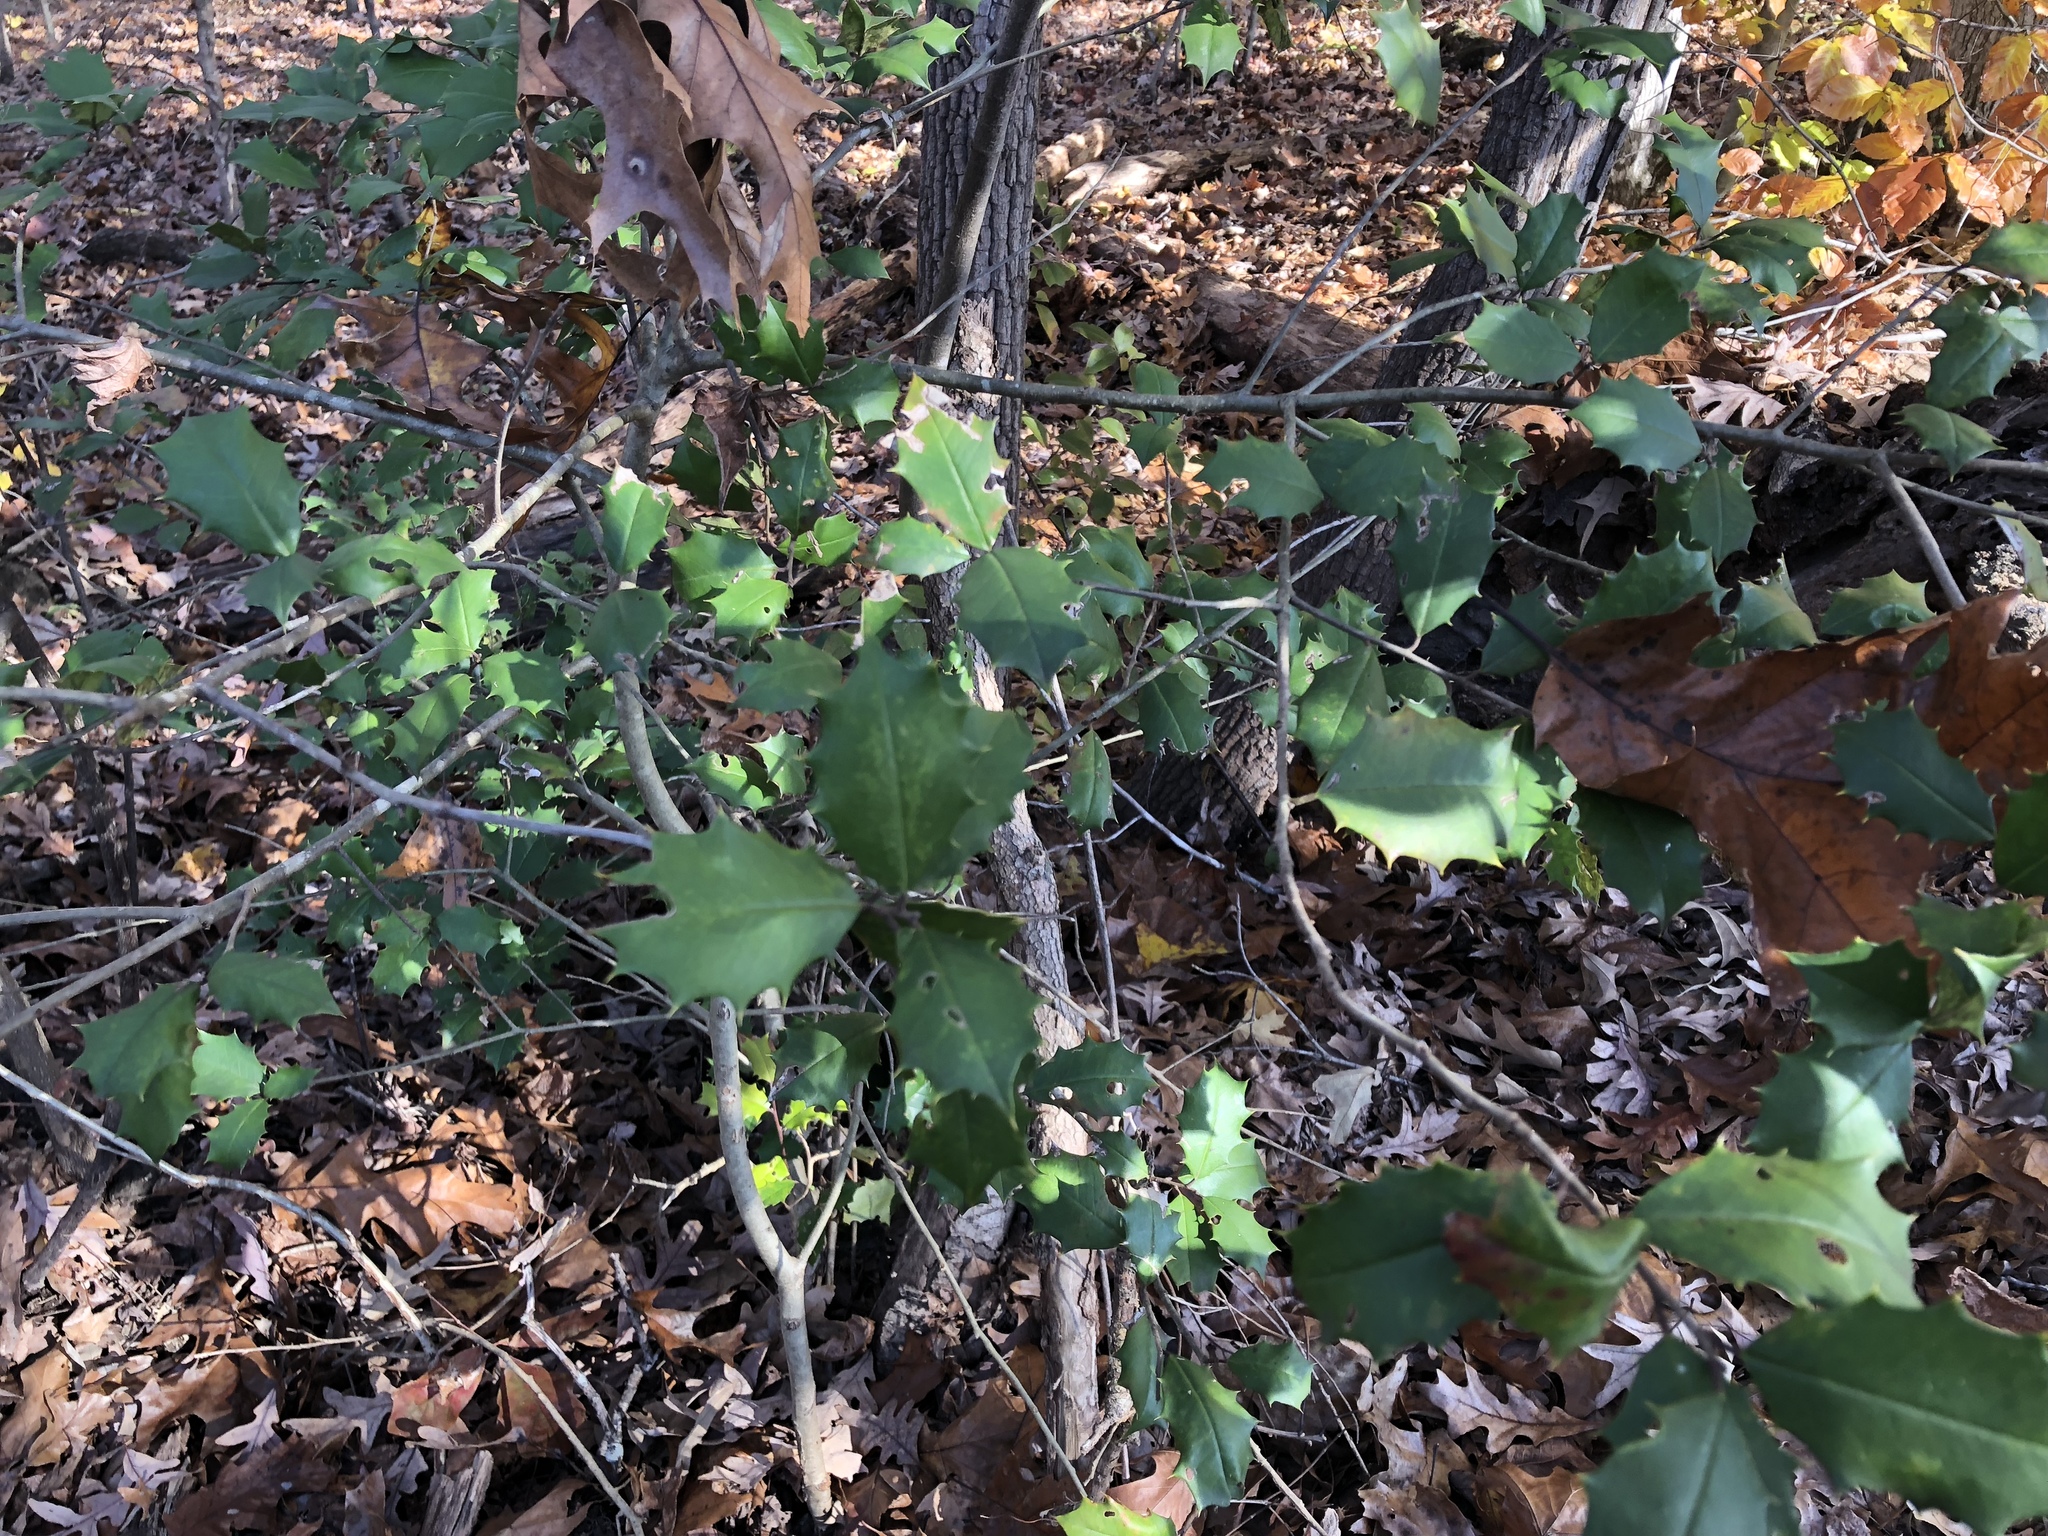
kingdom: Plantae
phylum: Tracheophyta
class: Magnoliopsida
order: Aquifoliales
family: Aquifoliaceae
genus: Ilex
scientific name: Ilex opaca
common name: American holly
